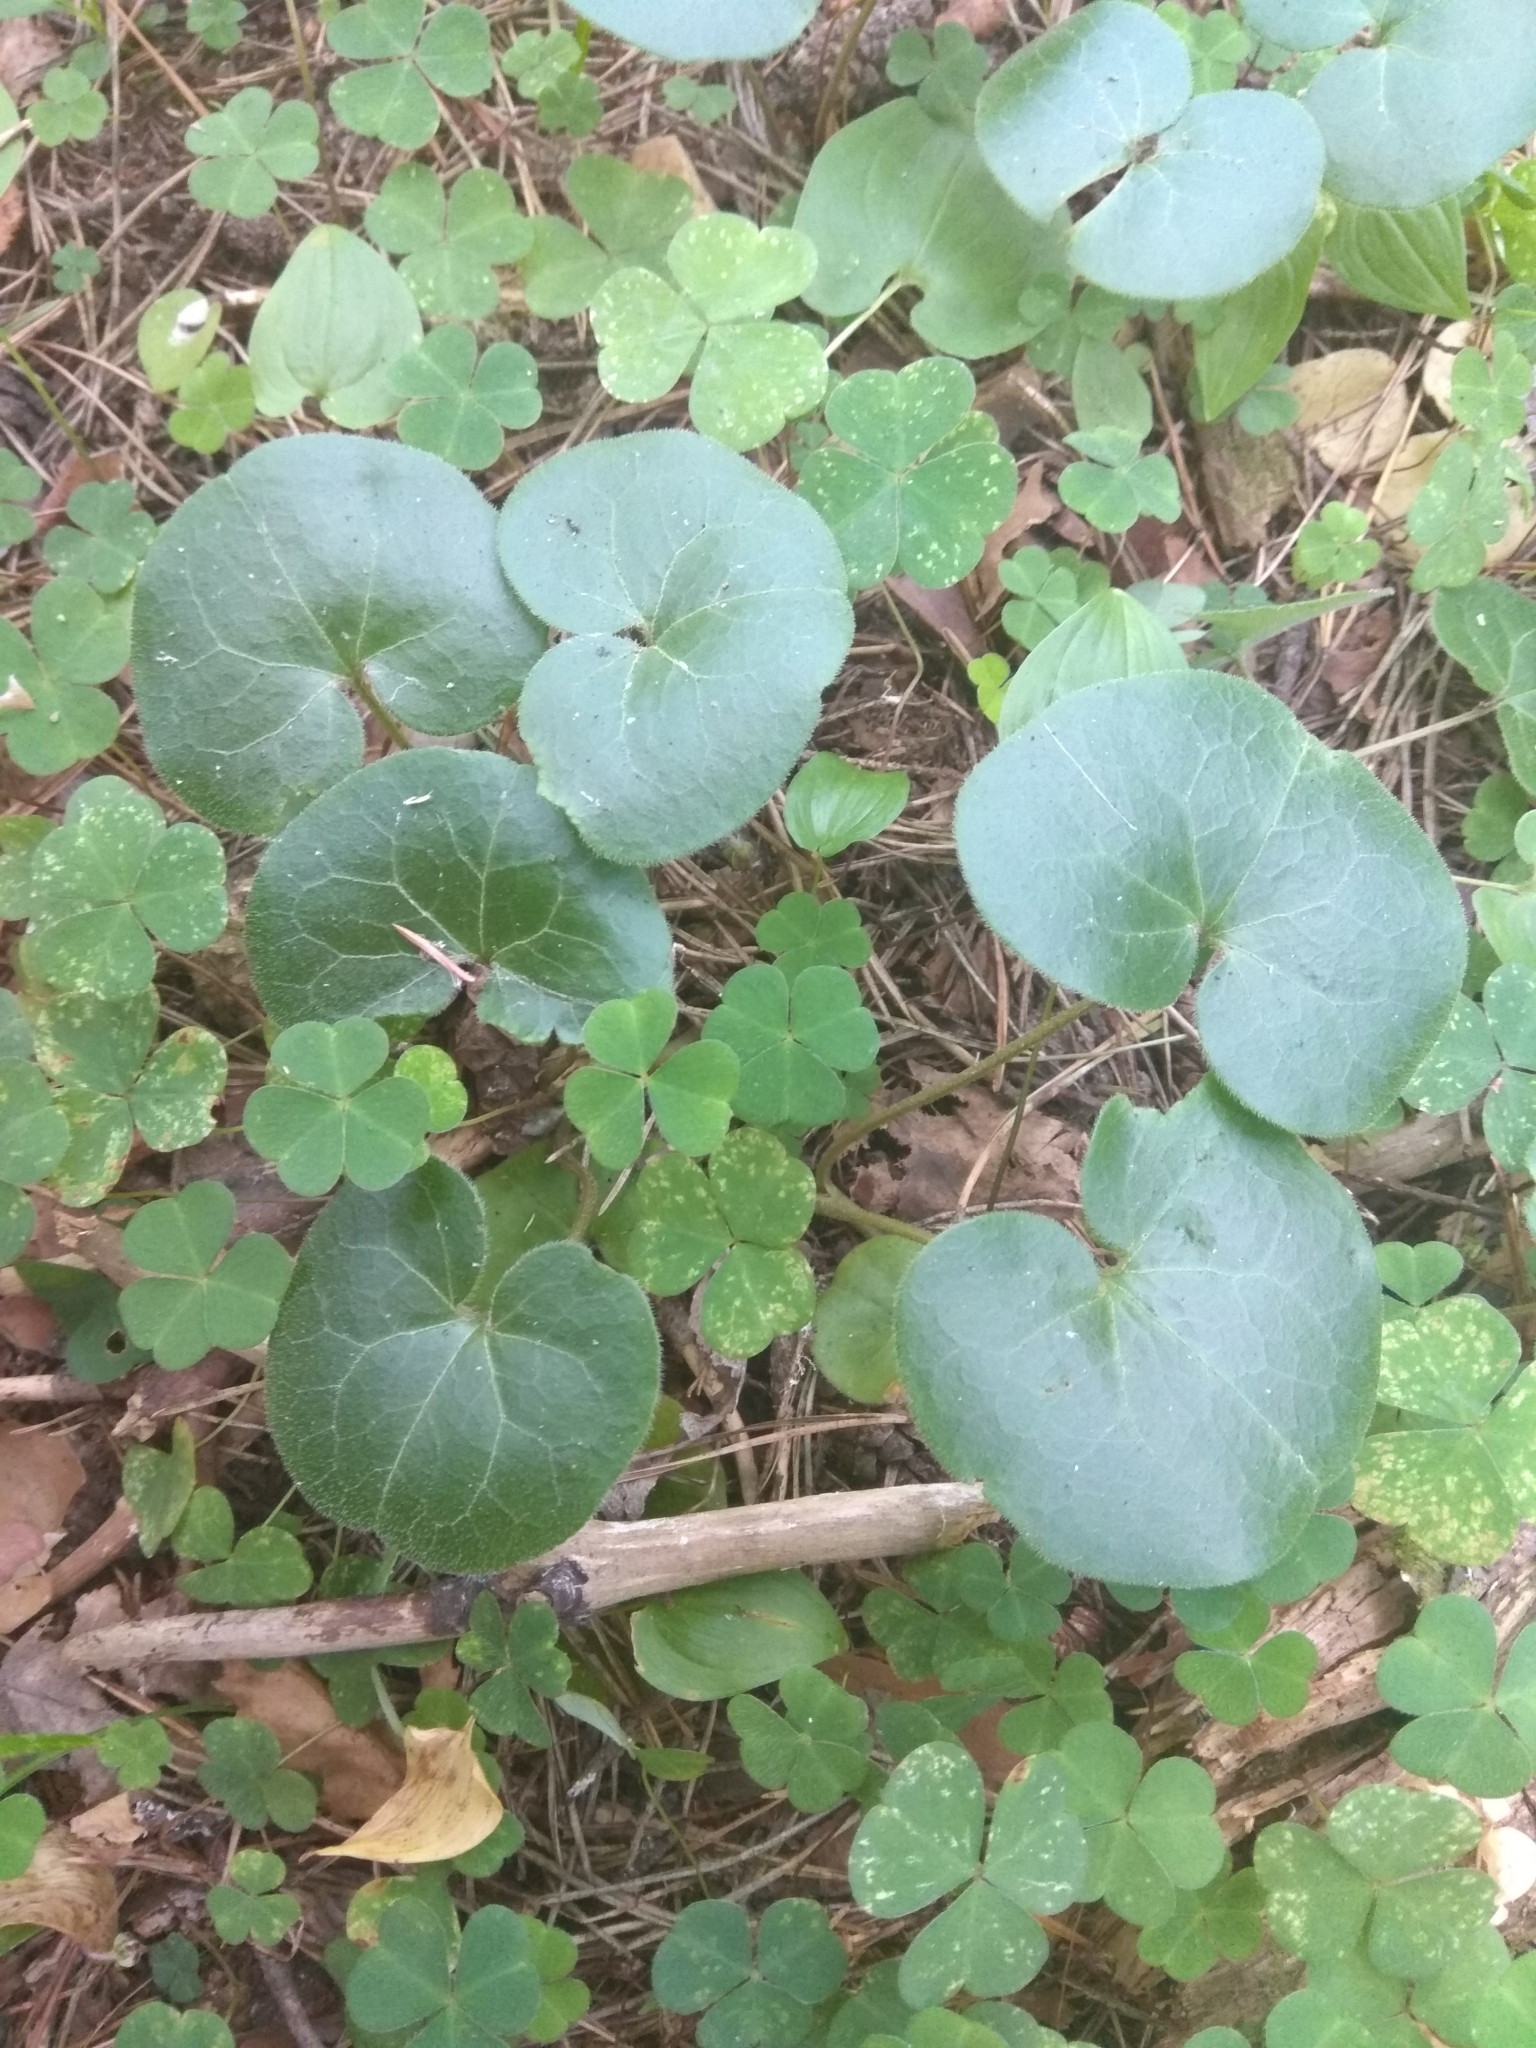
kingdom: Plantae
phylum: Tracheophyta
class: Magnoliopsida
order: Piperales
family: Aristolochiaceae
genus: Asarum
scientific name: Asarum europaeum
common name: Asarabacca
